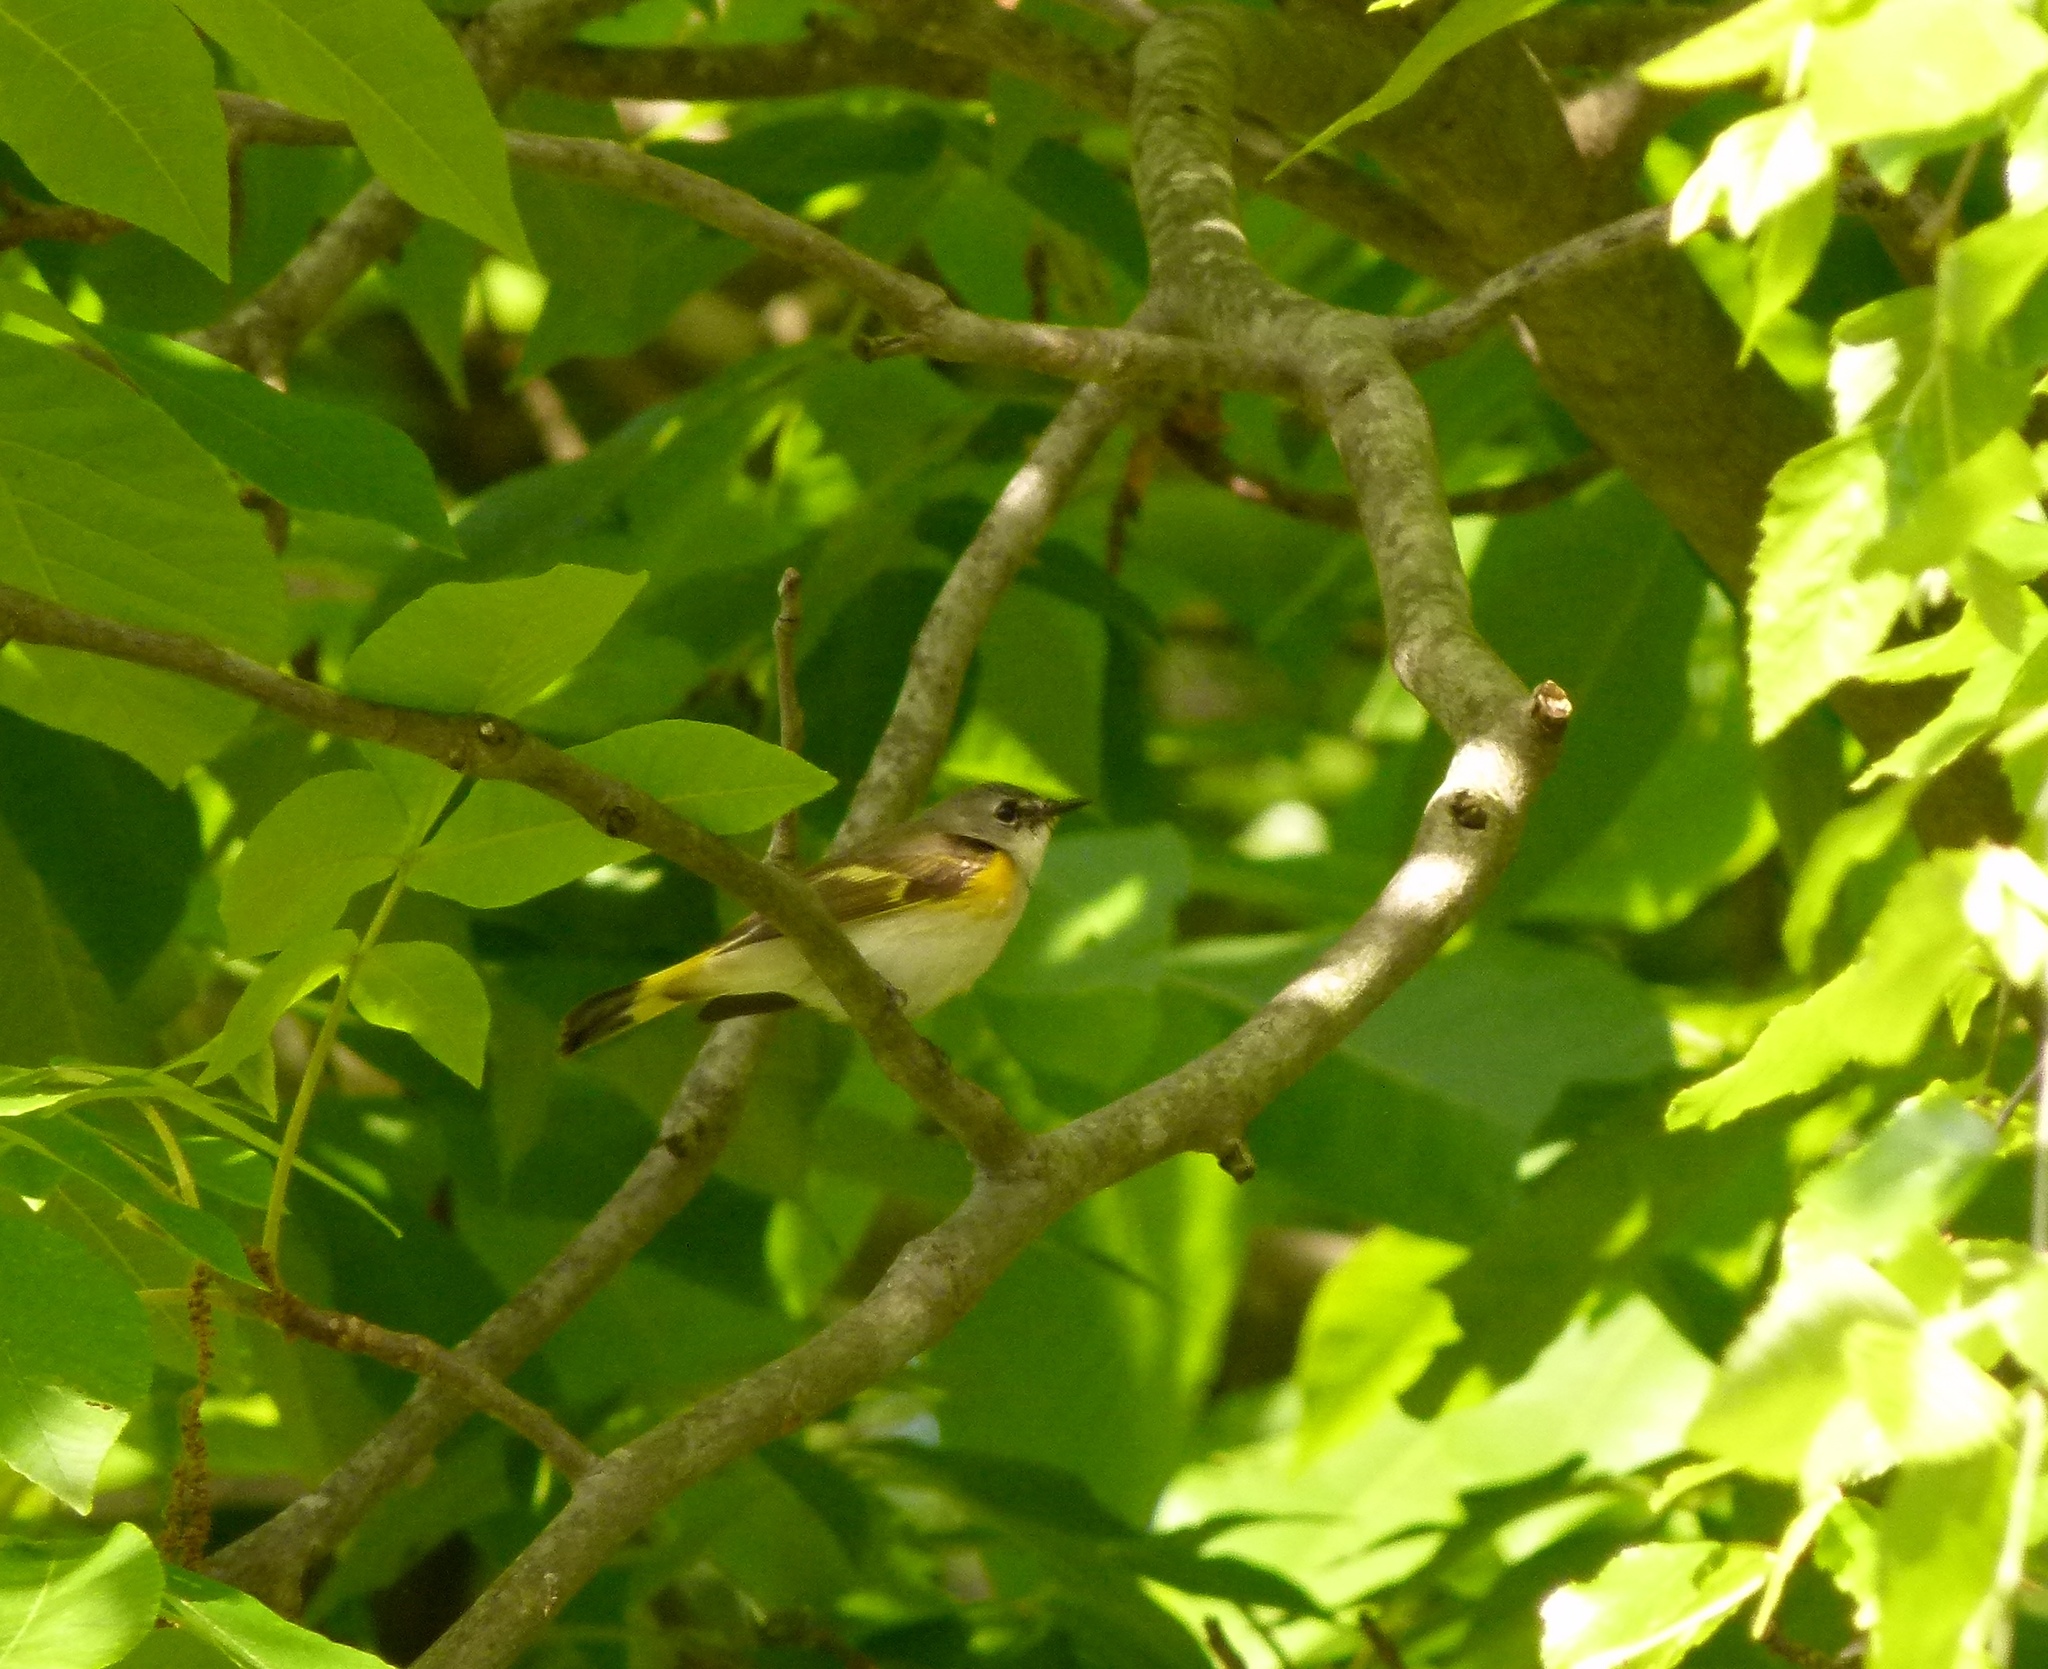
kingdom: Animalia
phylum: Chordata
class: Aves
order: Passeriformes
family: Parulidae
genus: Setophaga
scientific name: Setophaga ruticilla
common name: American redstart
